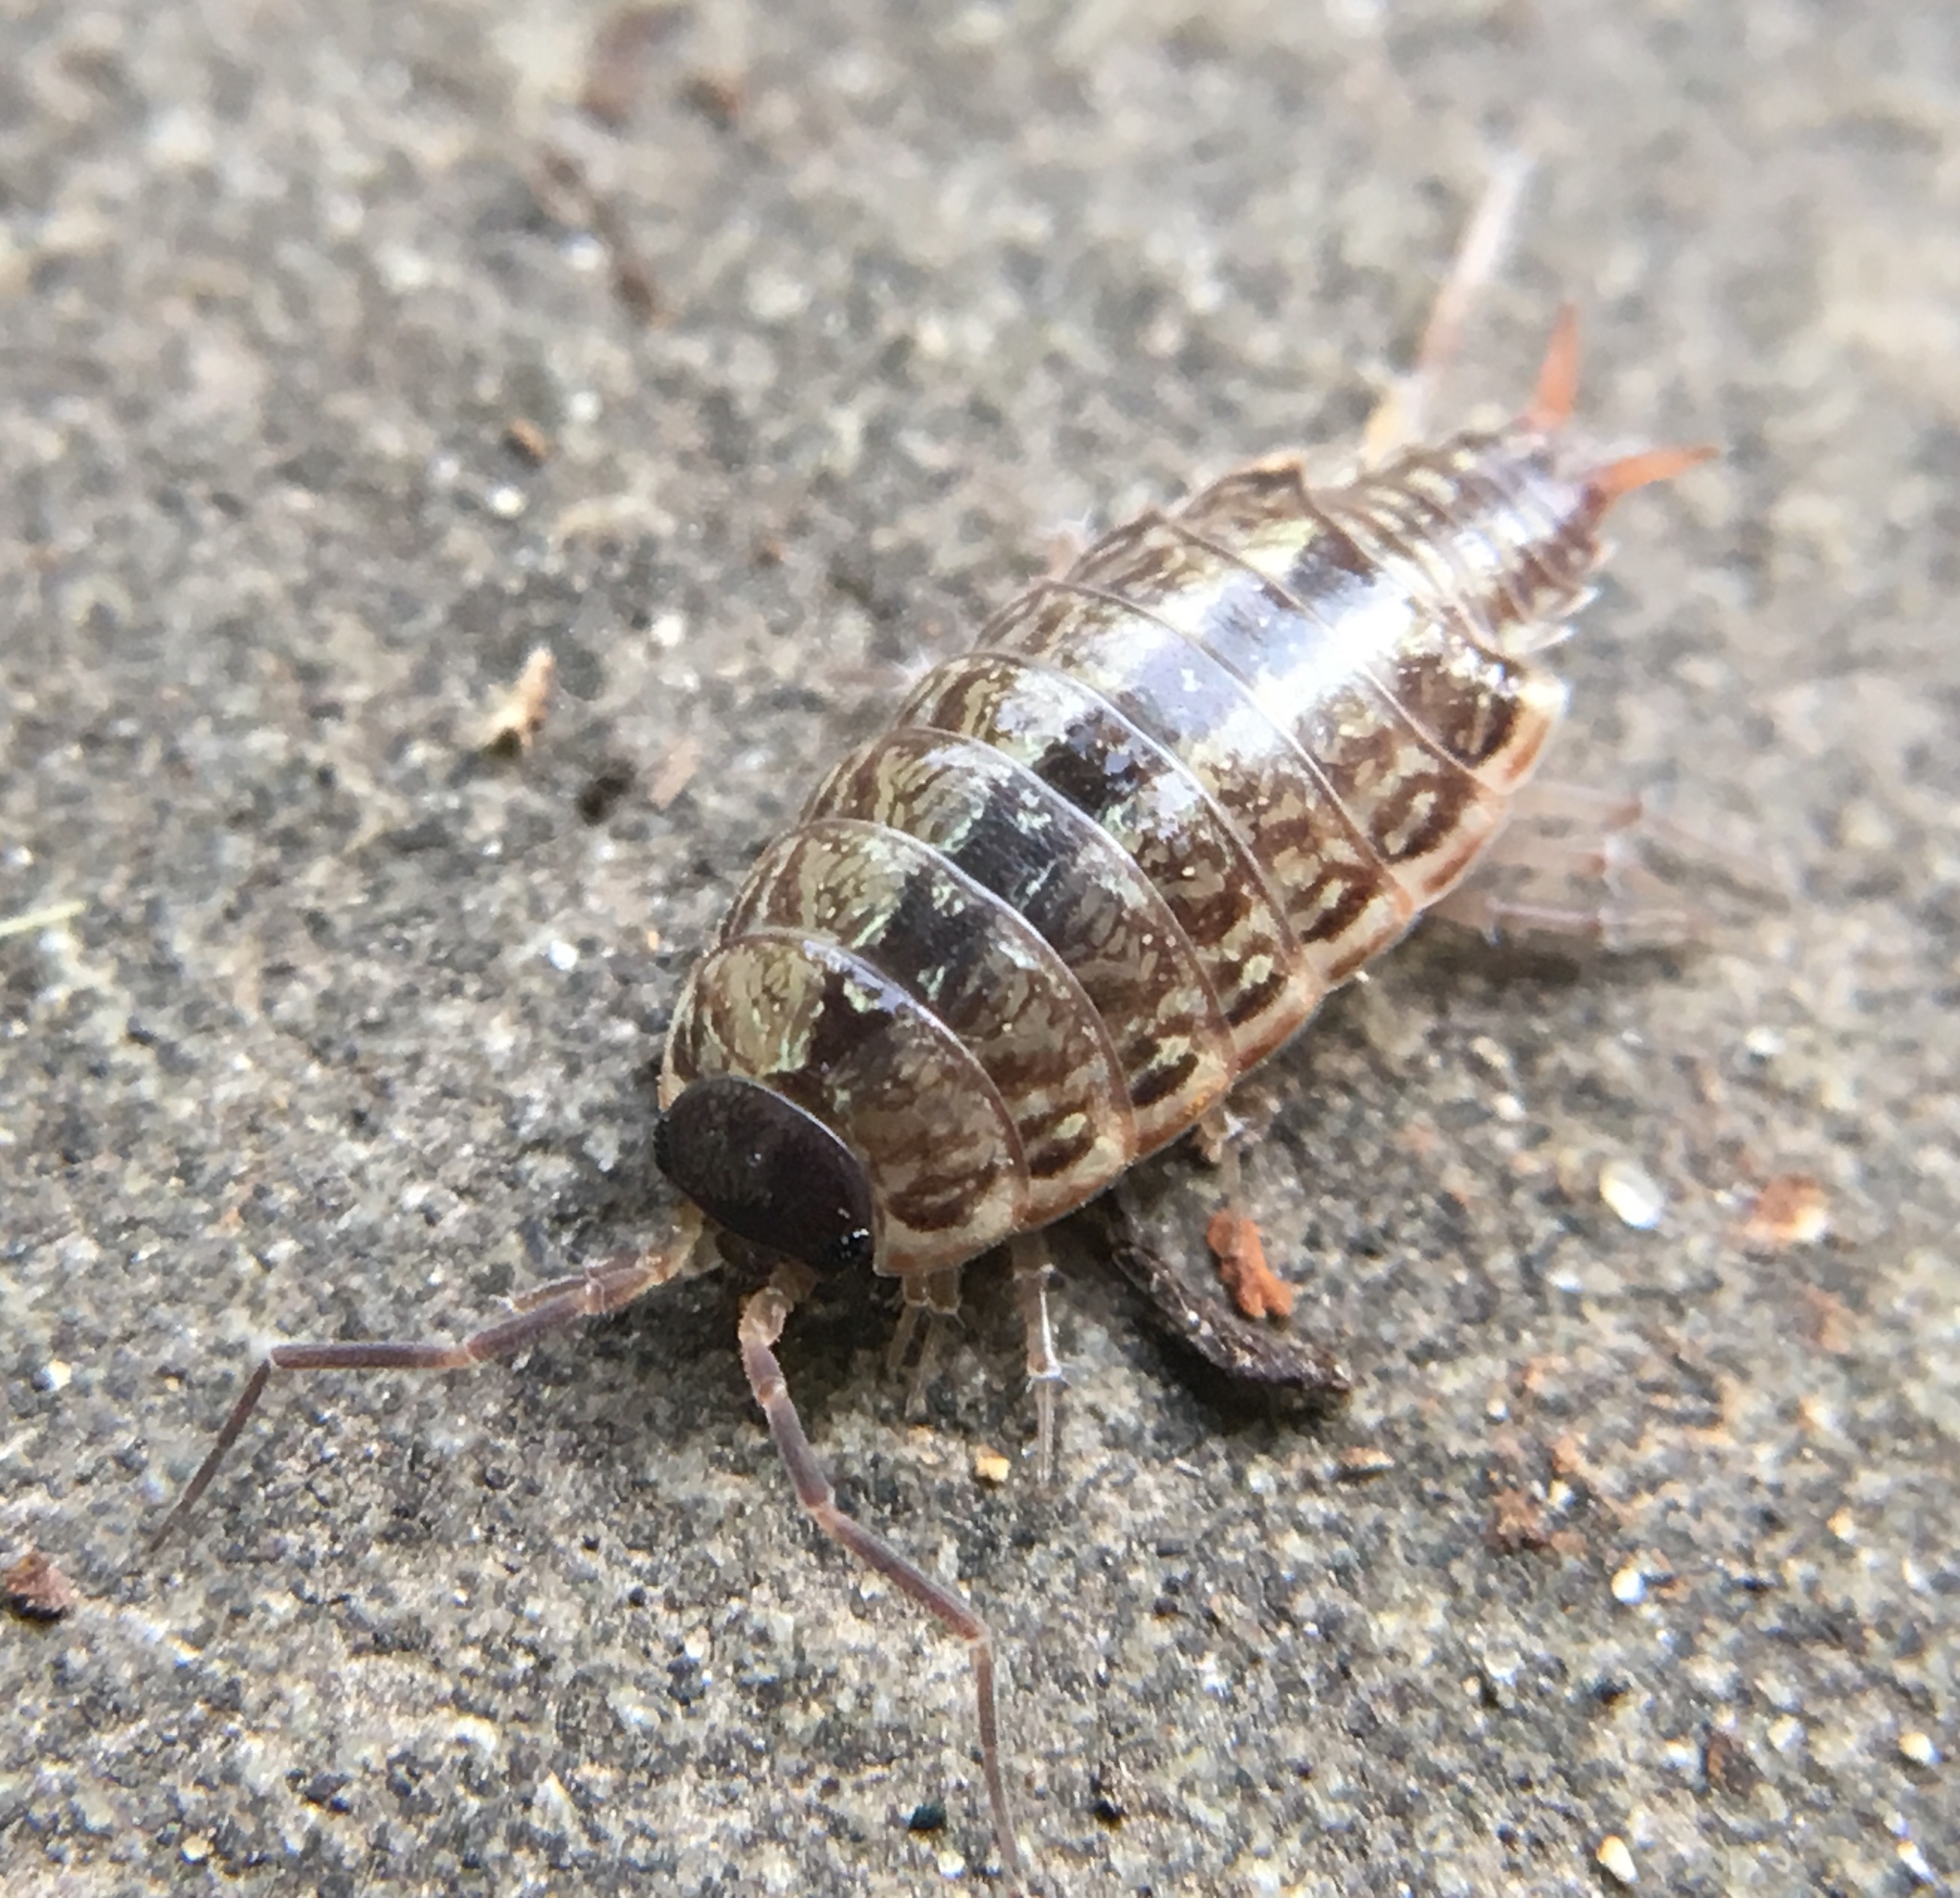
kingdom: Animalia
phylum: Arthropoda
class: Malacostraca
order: Isopoda
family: Philosciidae
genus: Philoscia
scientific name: Philoscia muscorum
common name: Common striped woodlouse
